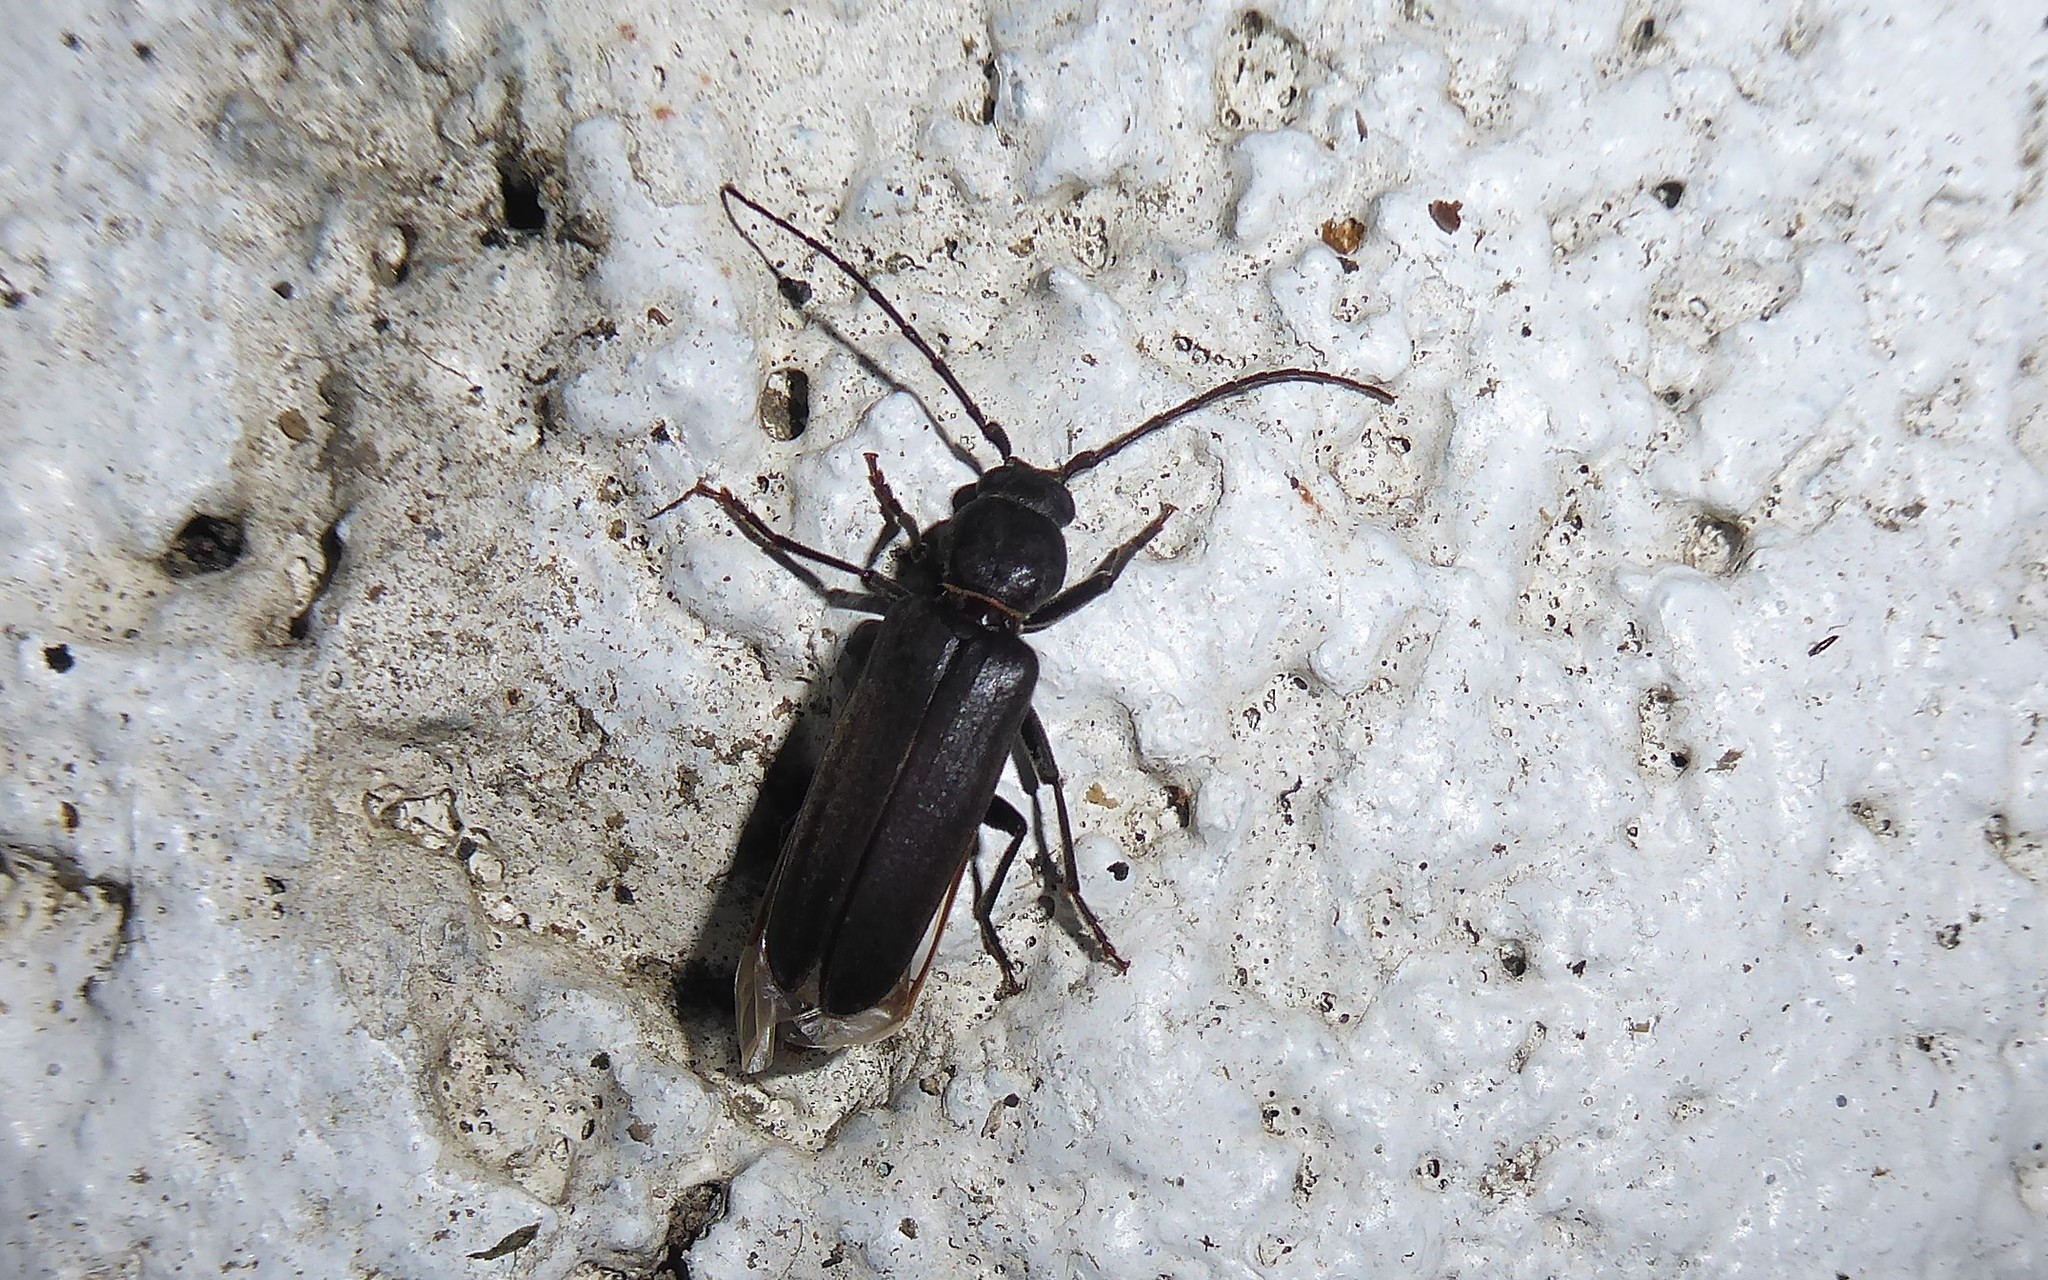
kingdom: Animalia
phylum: Arthropoda
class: Insecta
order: Coleoptera
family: Cerambycidae
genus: Arhopalus
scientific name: Arhopalus ferus
